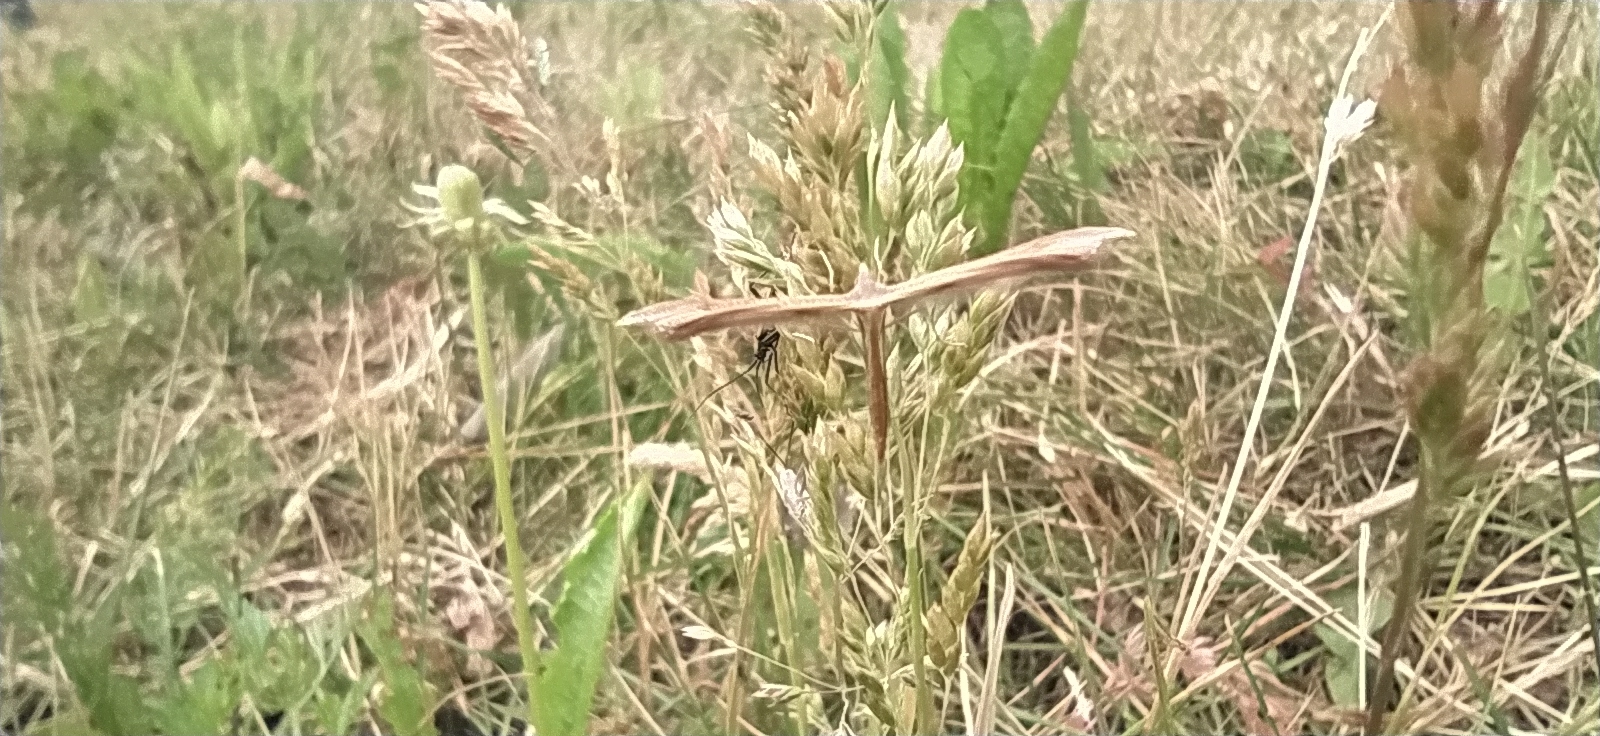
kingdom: Animalia
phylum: Arthropoda
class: Insecta
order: Lepidoptera
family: Pterophoridae
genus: Stenoptilia
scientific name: Stenoptilia pterodactyla
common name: Brown plume
